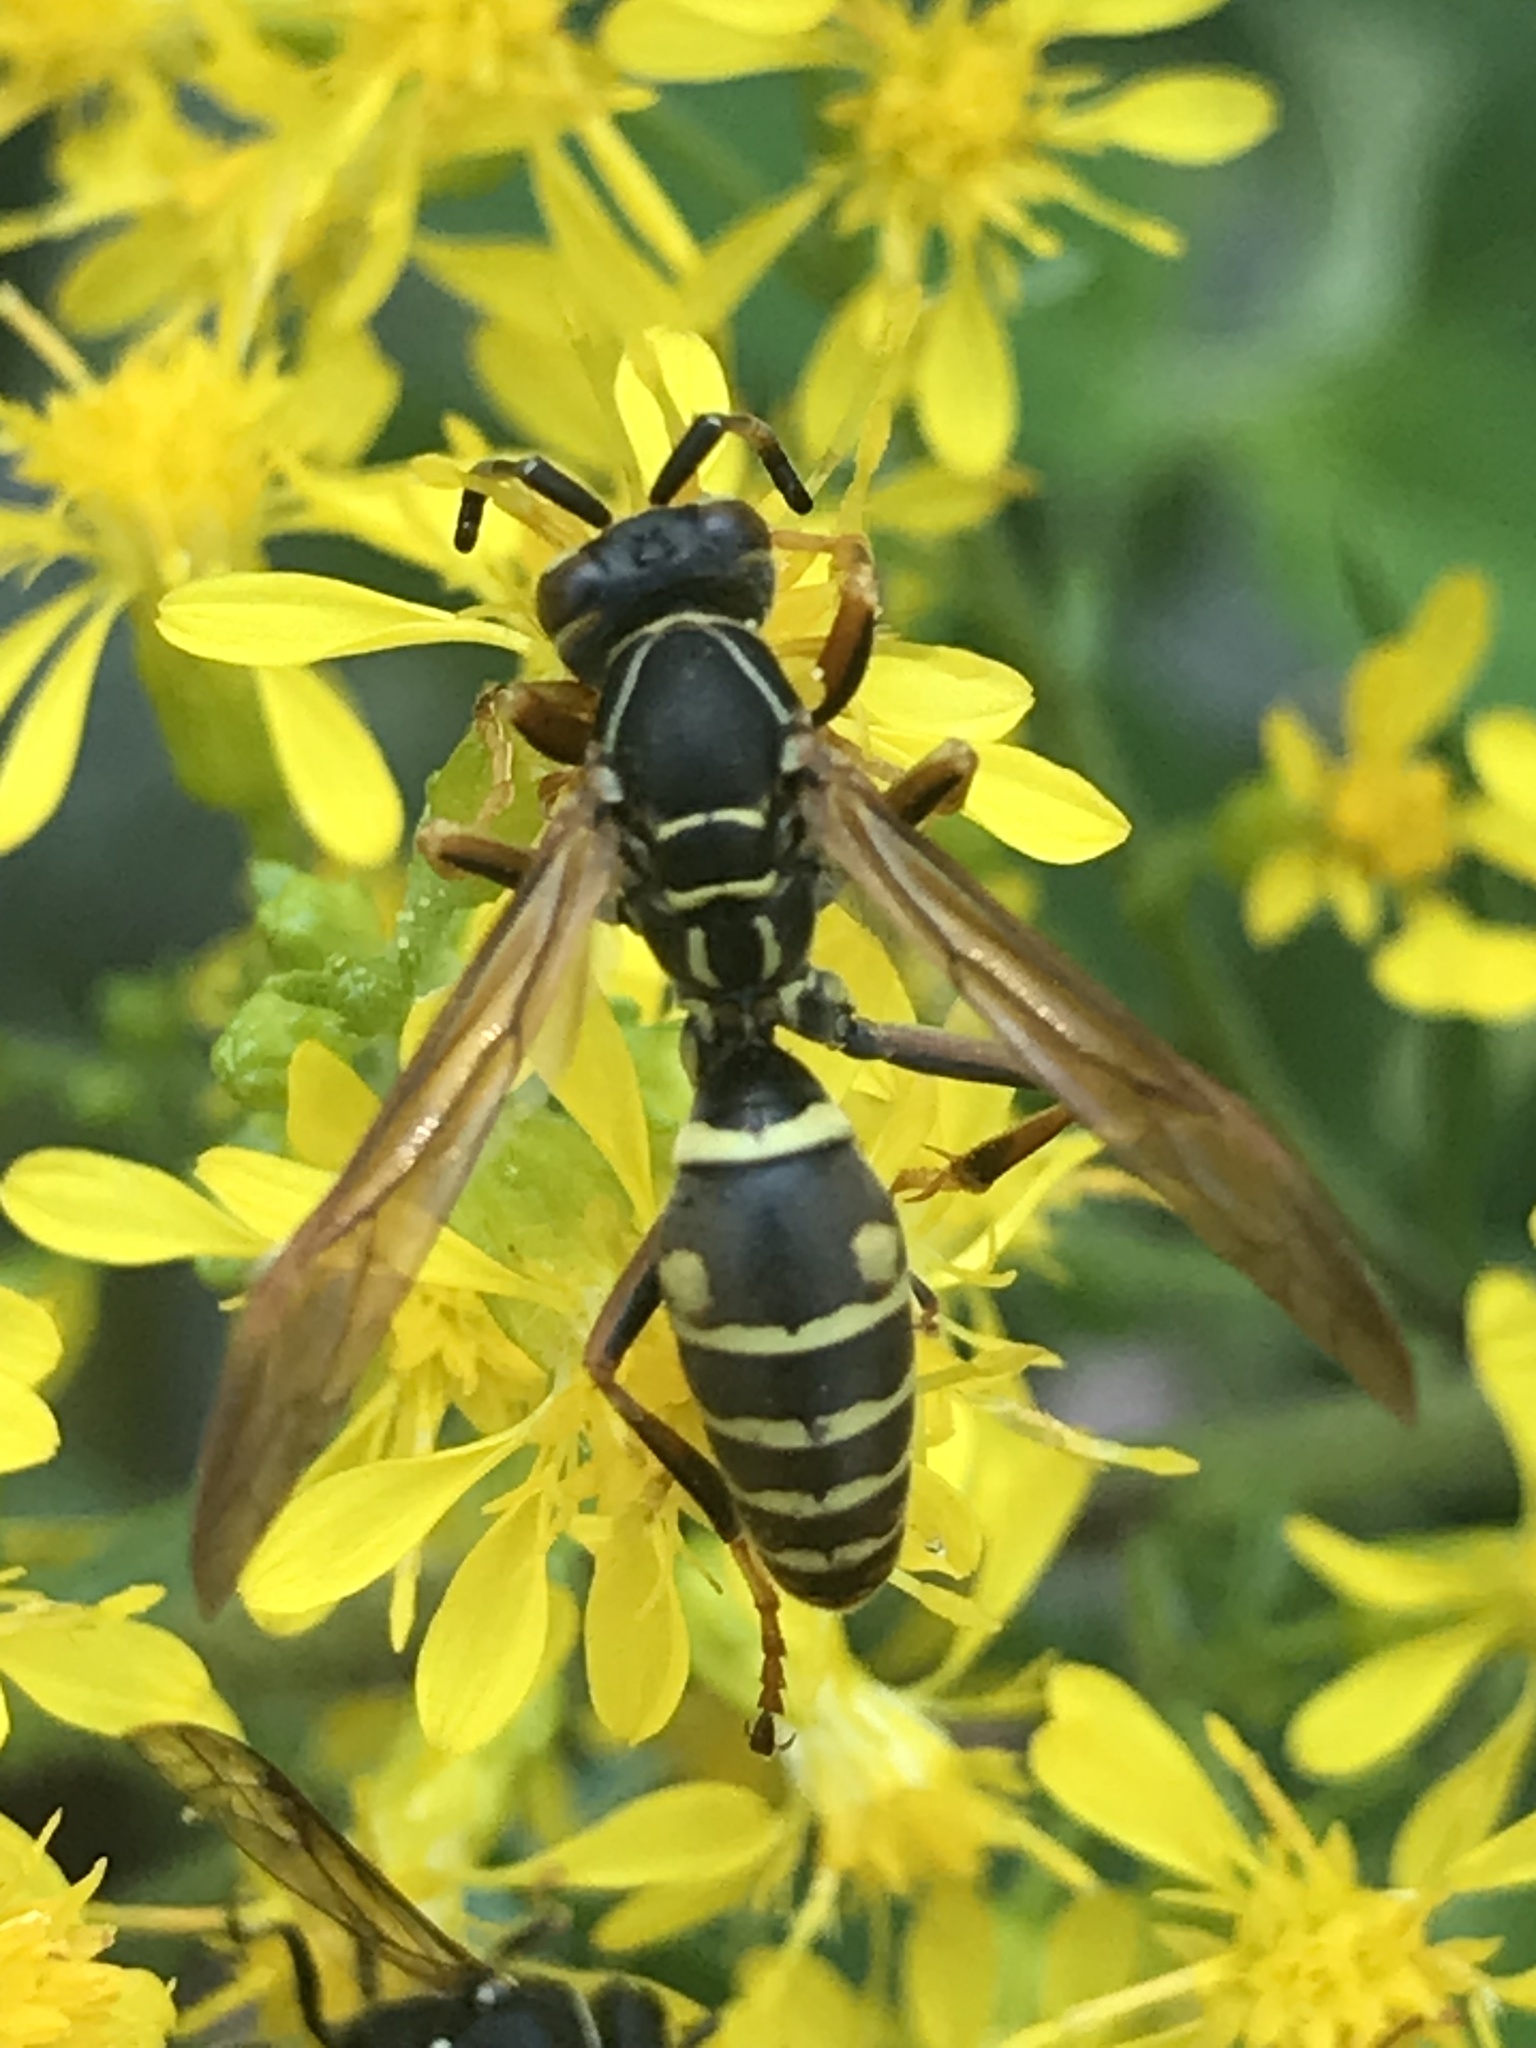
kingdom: Animalia
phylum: Arthropoda
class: Insecta
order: Hymenoptera
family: Eumenidae
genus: Polistes
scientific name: Polistes fuscatus
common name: Dark paper wasp
